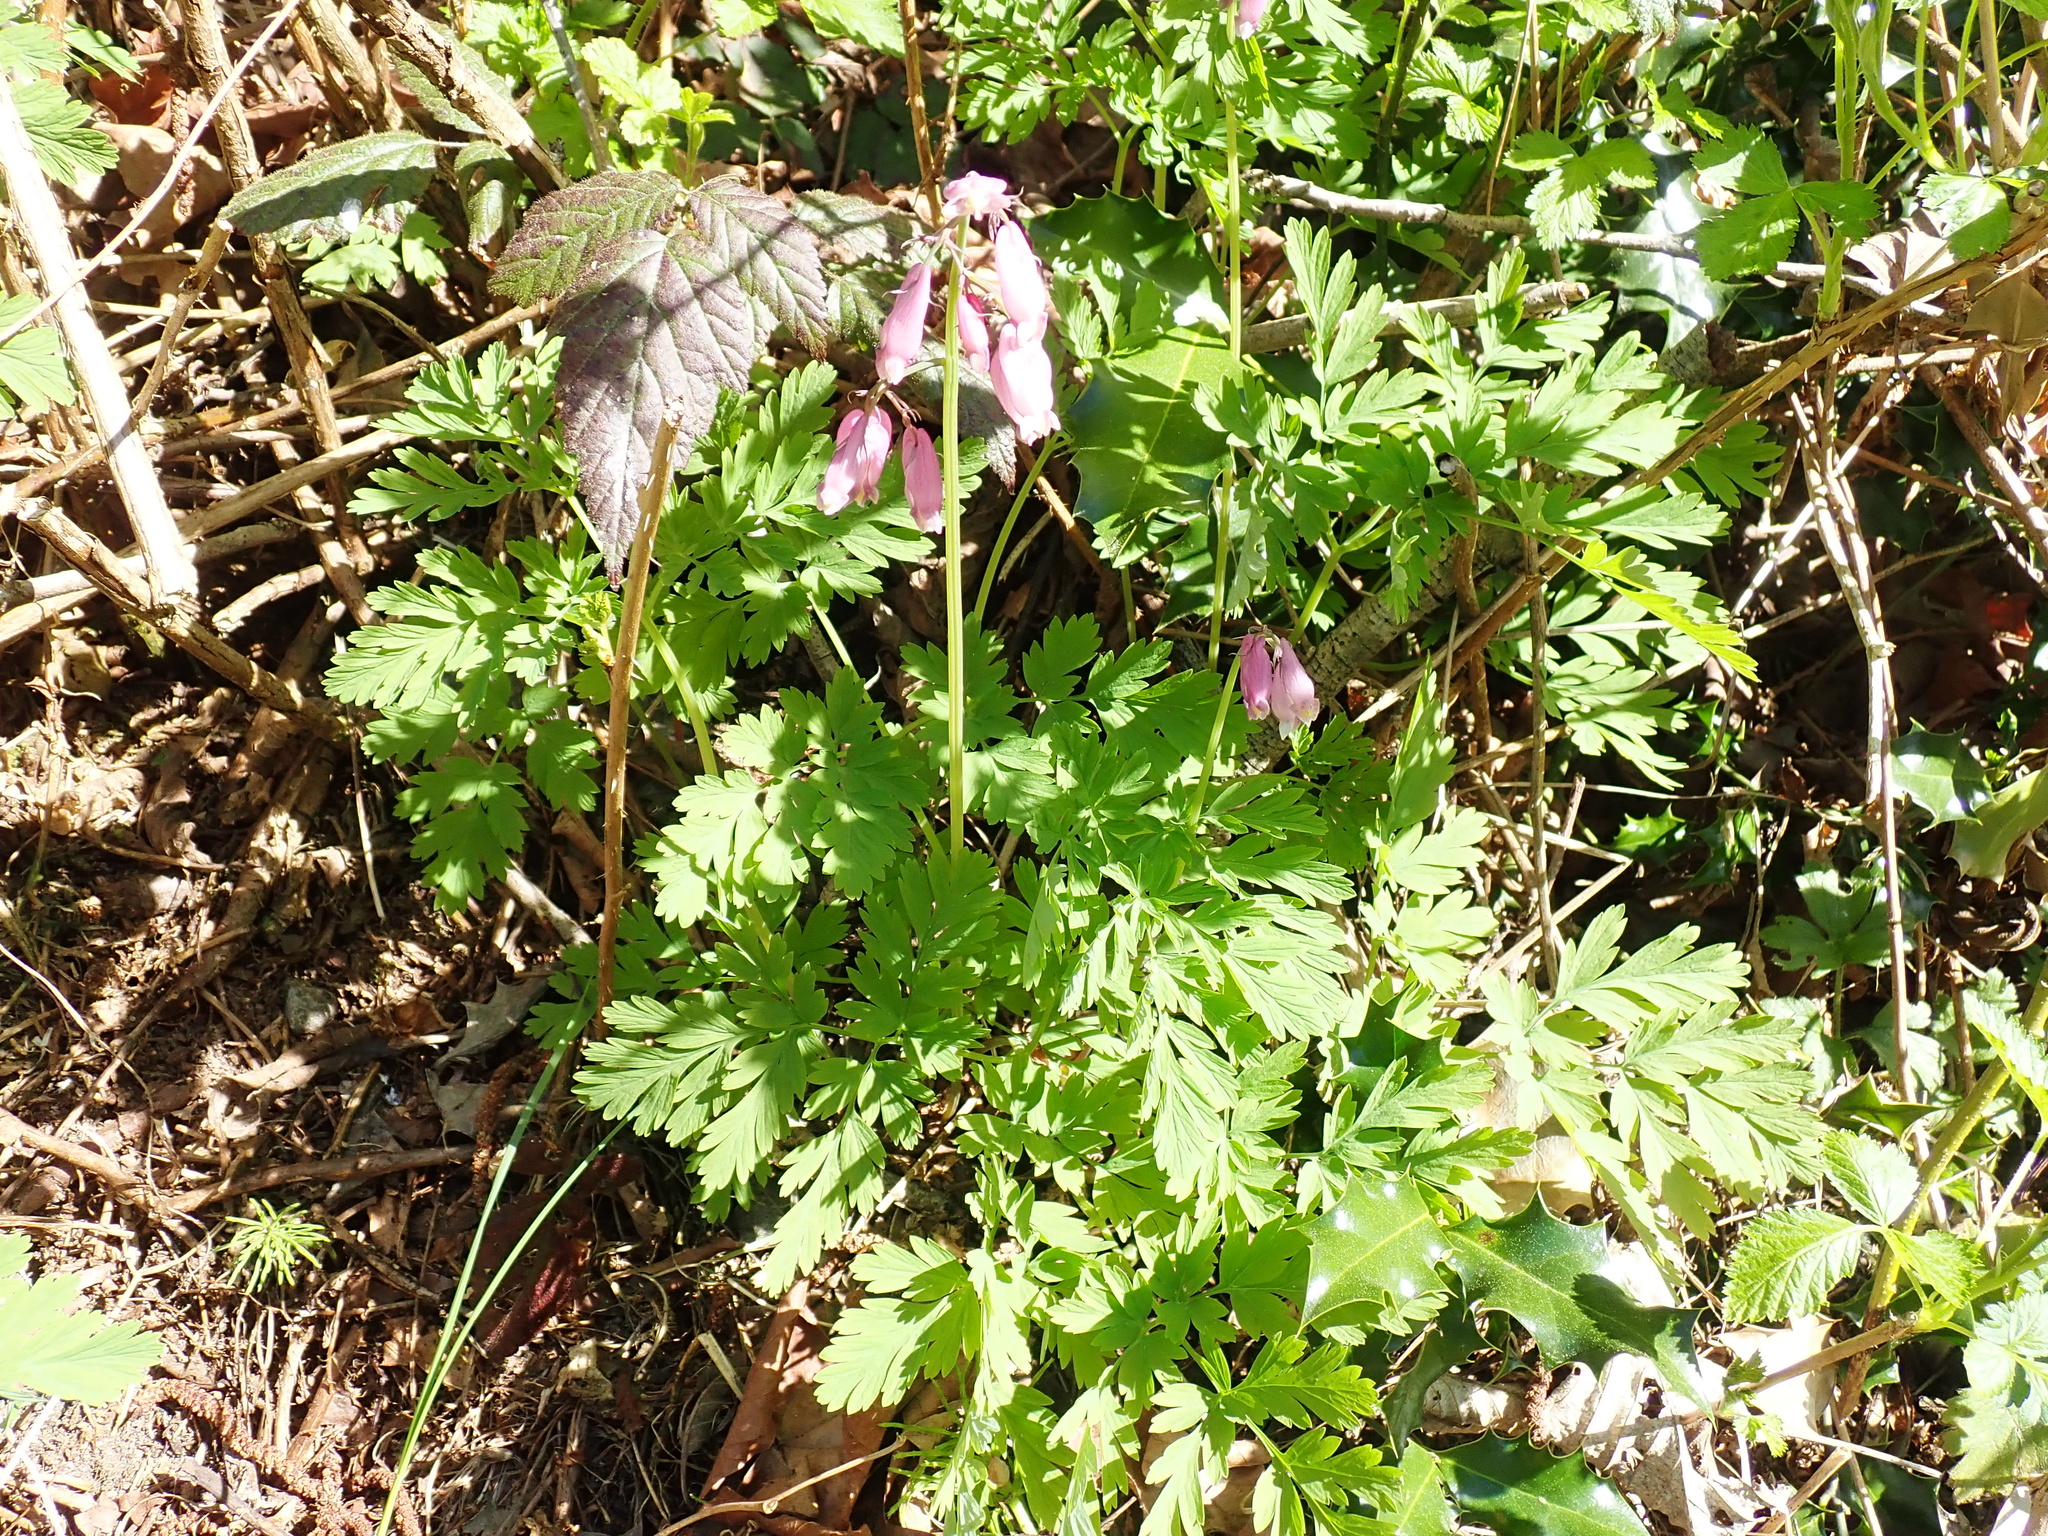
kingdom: Plantae
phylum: Tracheophyta
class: Magnoliopsida
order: Ranunculales
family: Papaveraceae
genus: Dicentra
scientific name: Dicentra formosa
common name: Bleeding-heart
